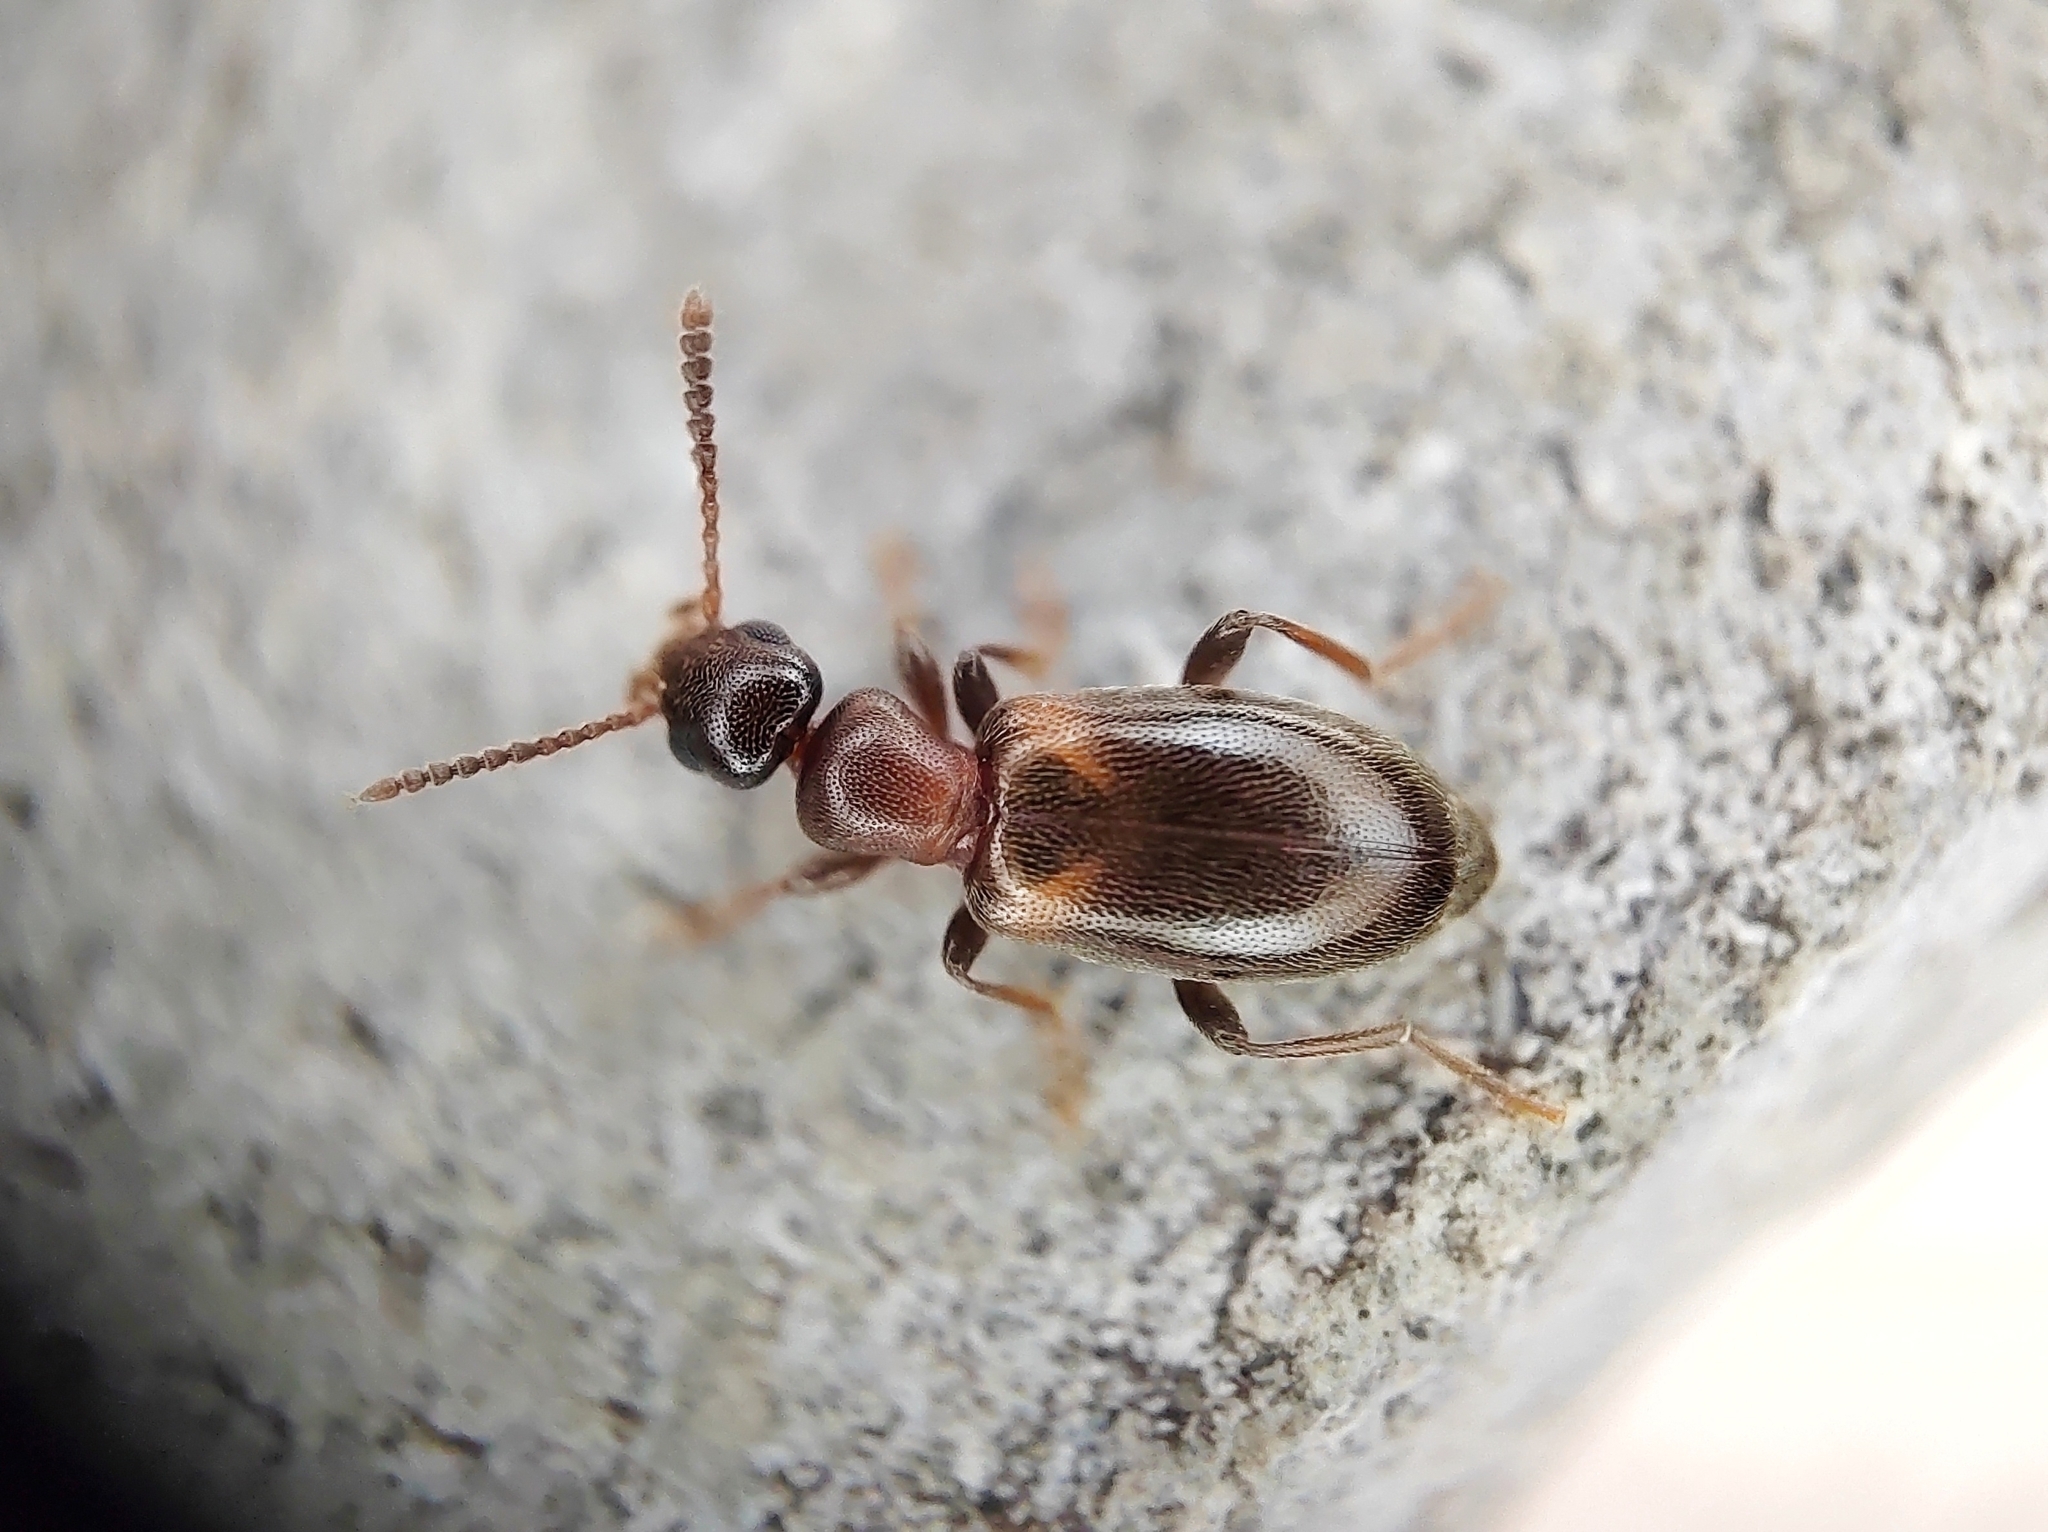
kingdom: Animalia
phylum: Arthropoda
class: Insecta
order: Coleoptera
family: Anthicidae
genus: Omonadus
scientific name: Omonadus formicarius
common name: Antlike flower beetle
